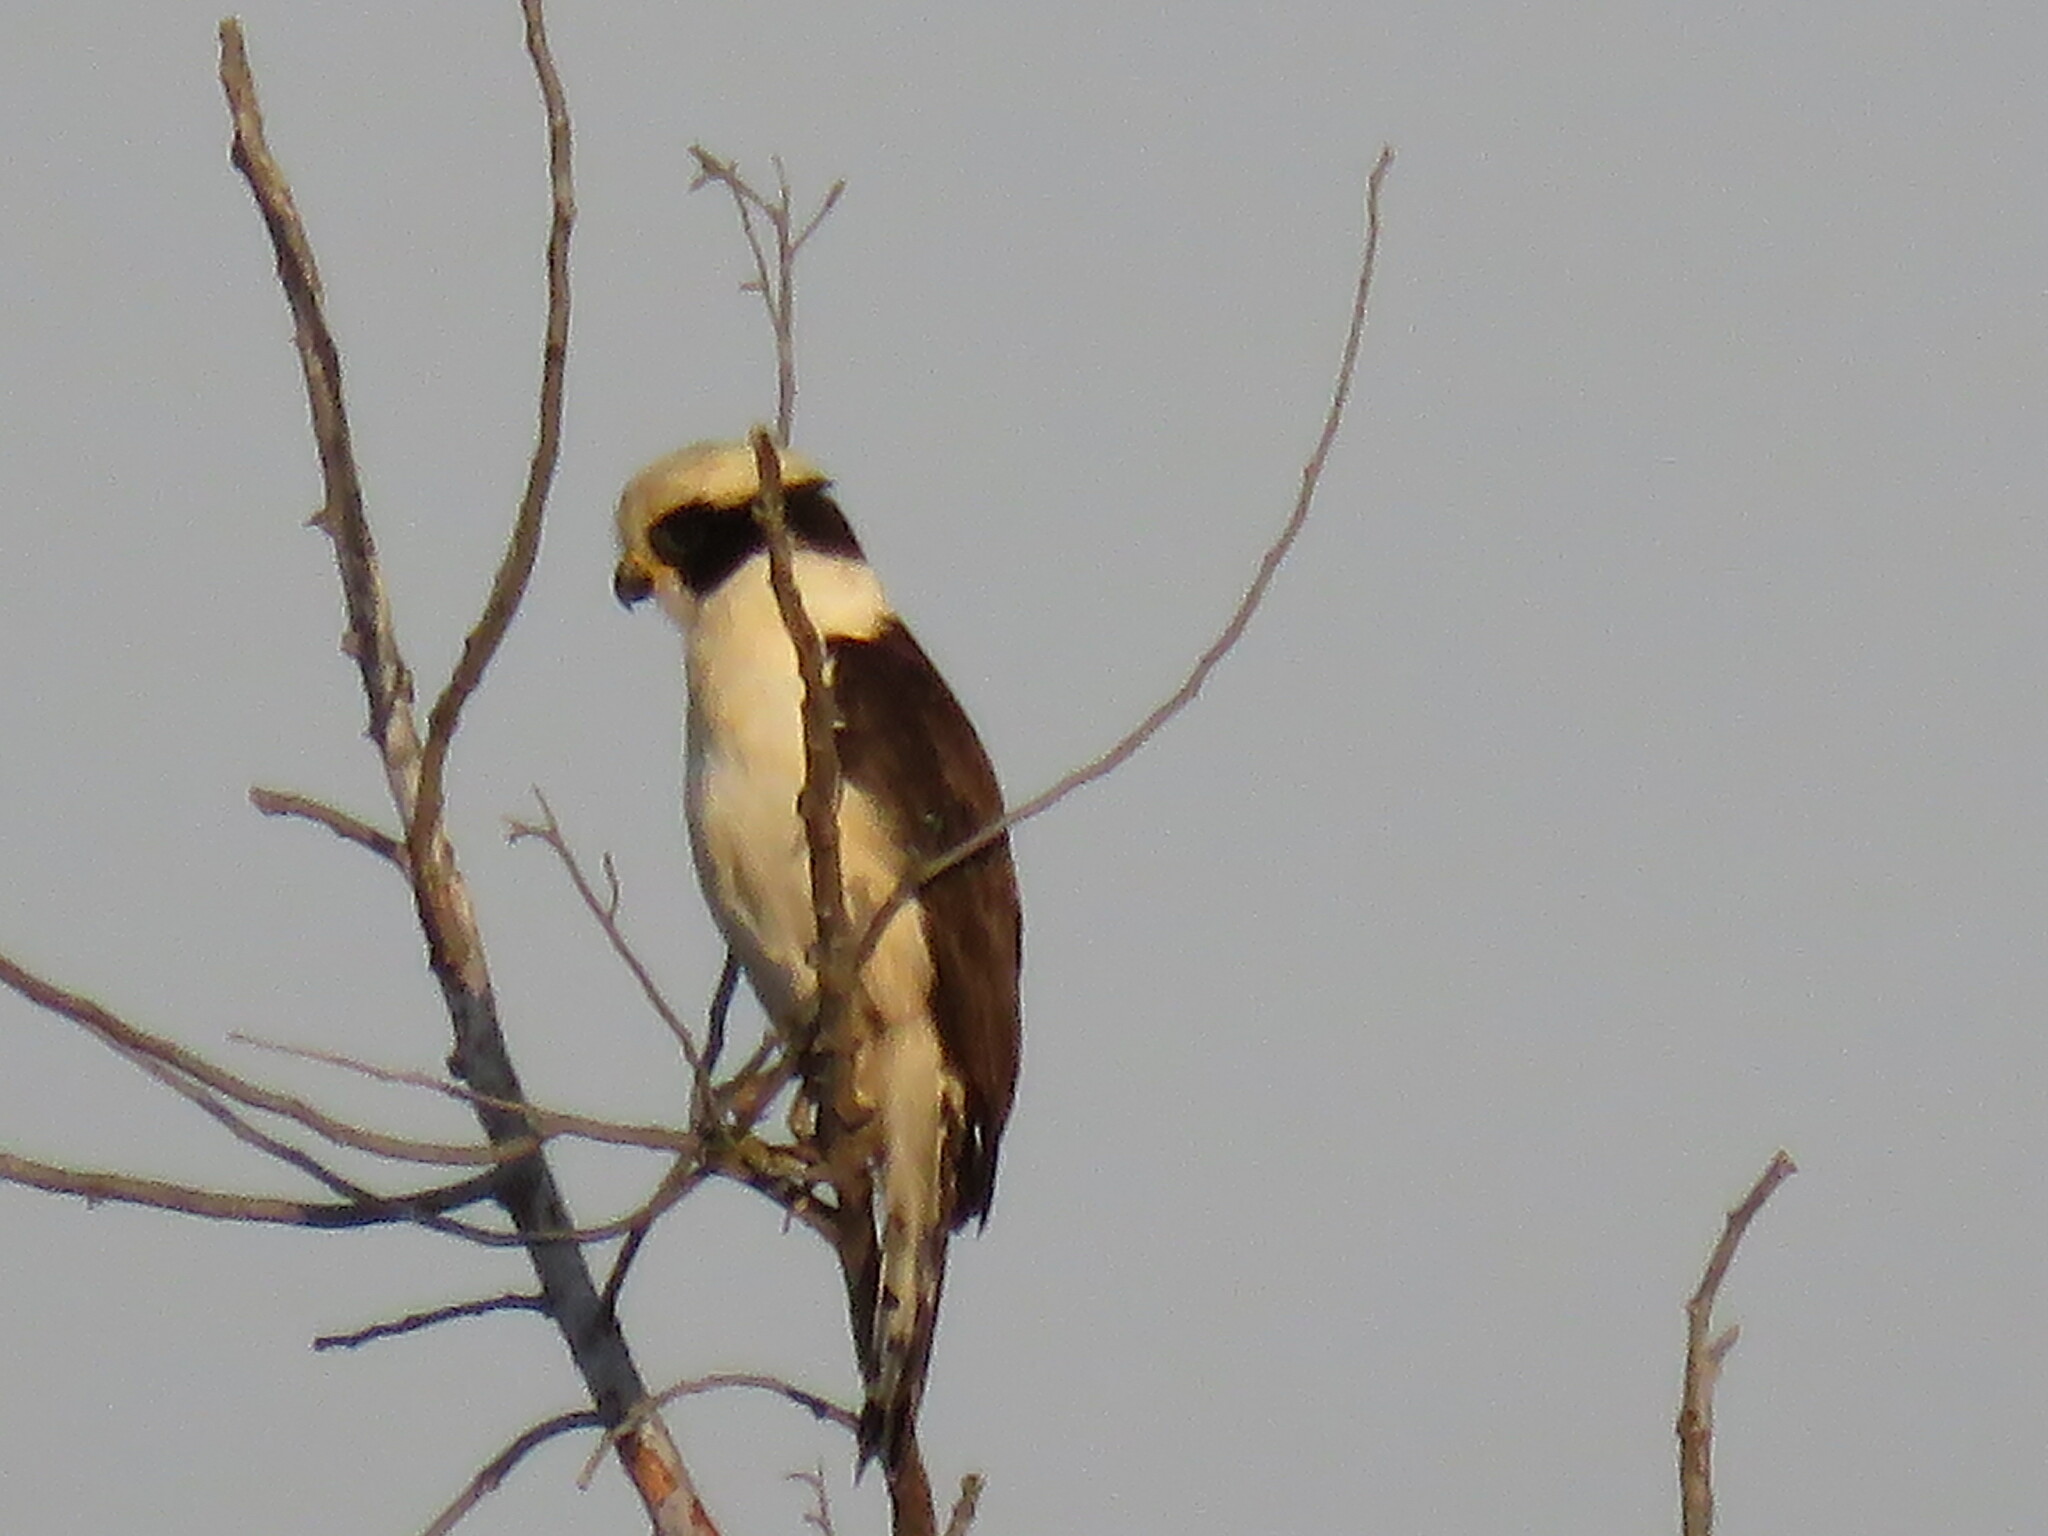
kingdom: Animalia
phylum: Chordata
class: Aves
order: Falconiformes
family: Falconidae
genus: Herpetotheres
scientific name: Herpetotheres cachinnans
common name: Laughing falcon
